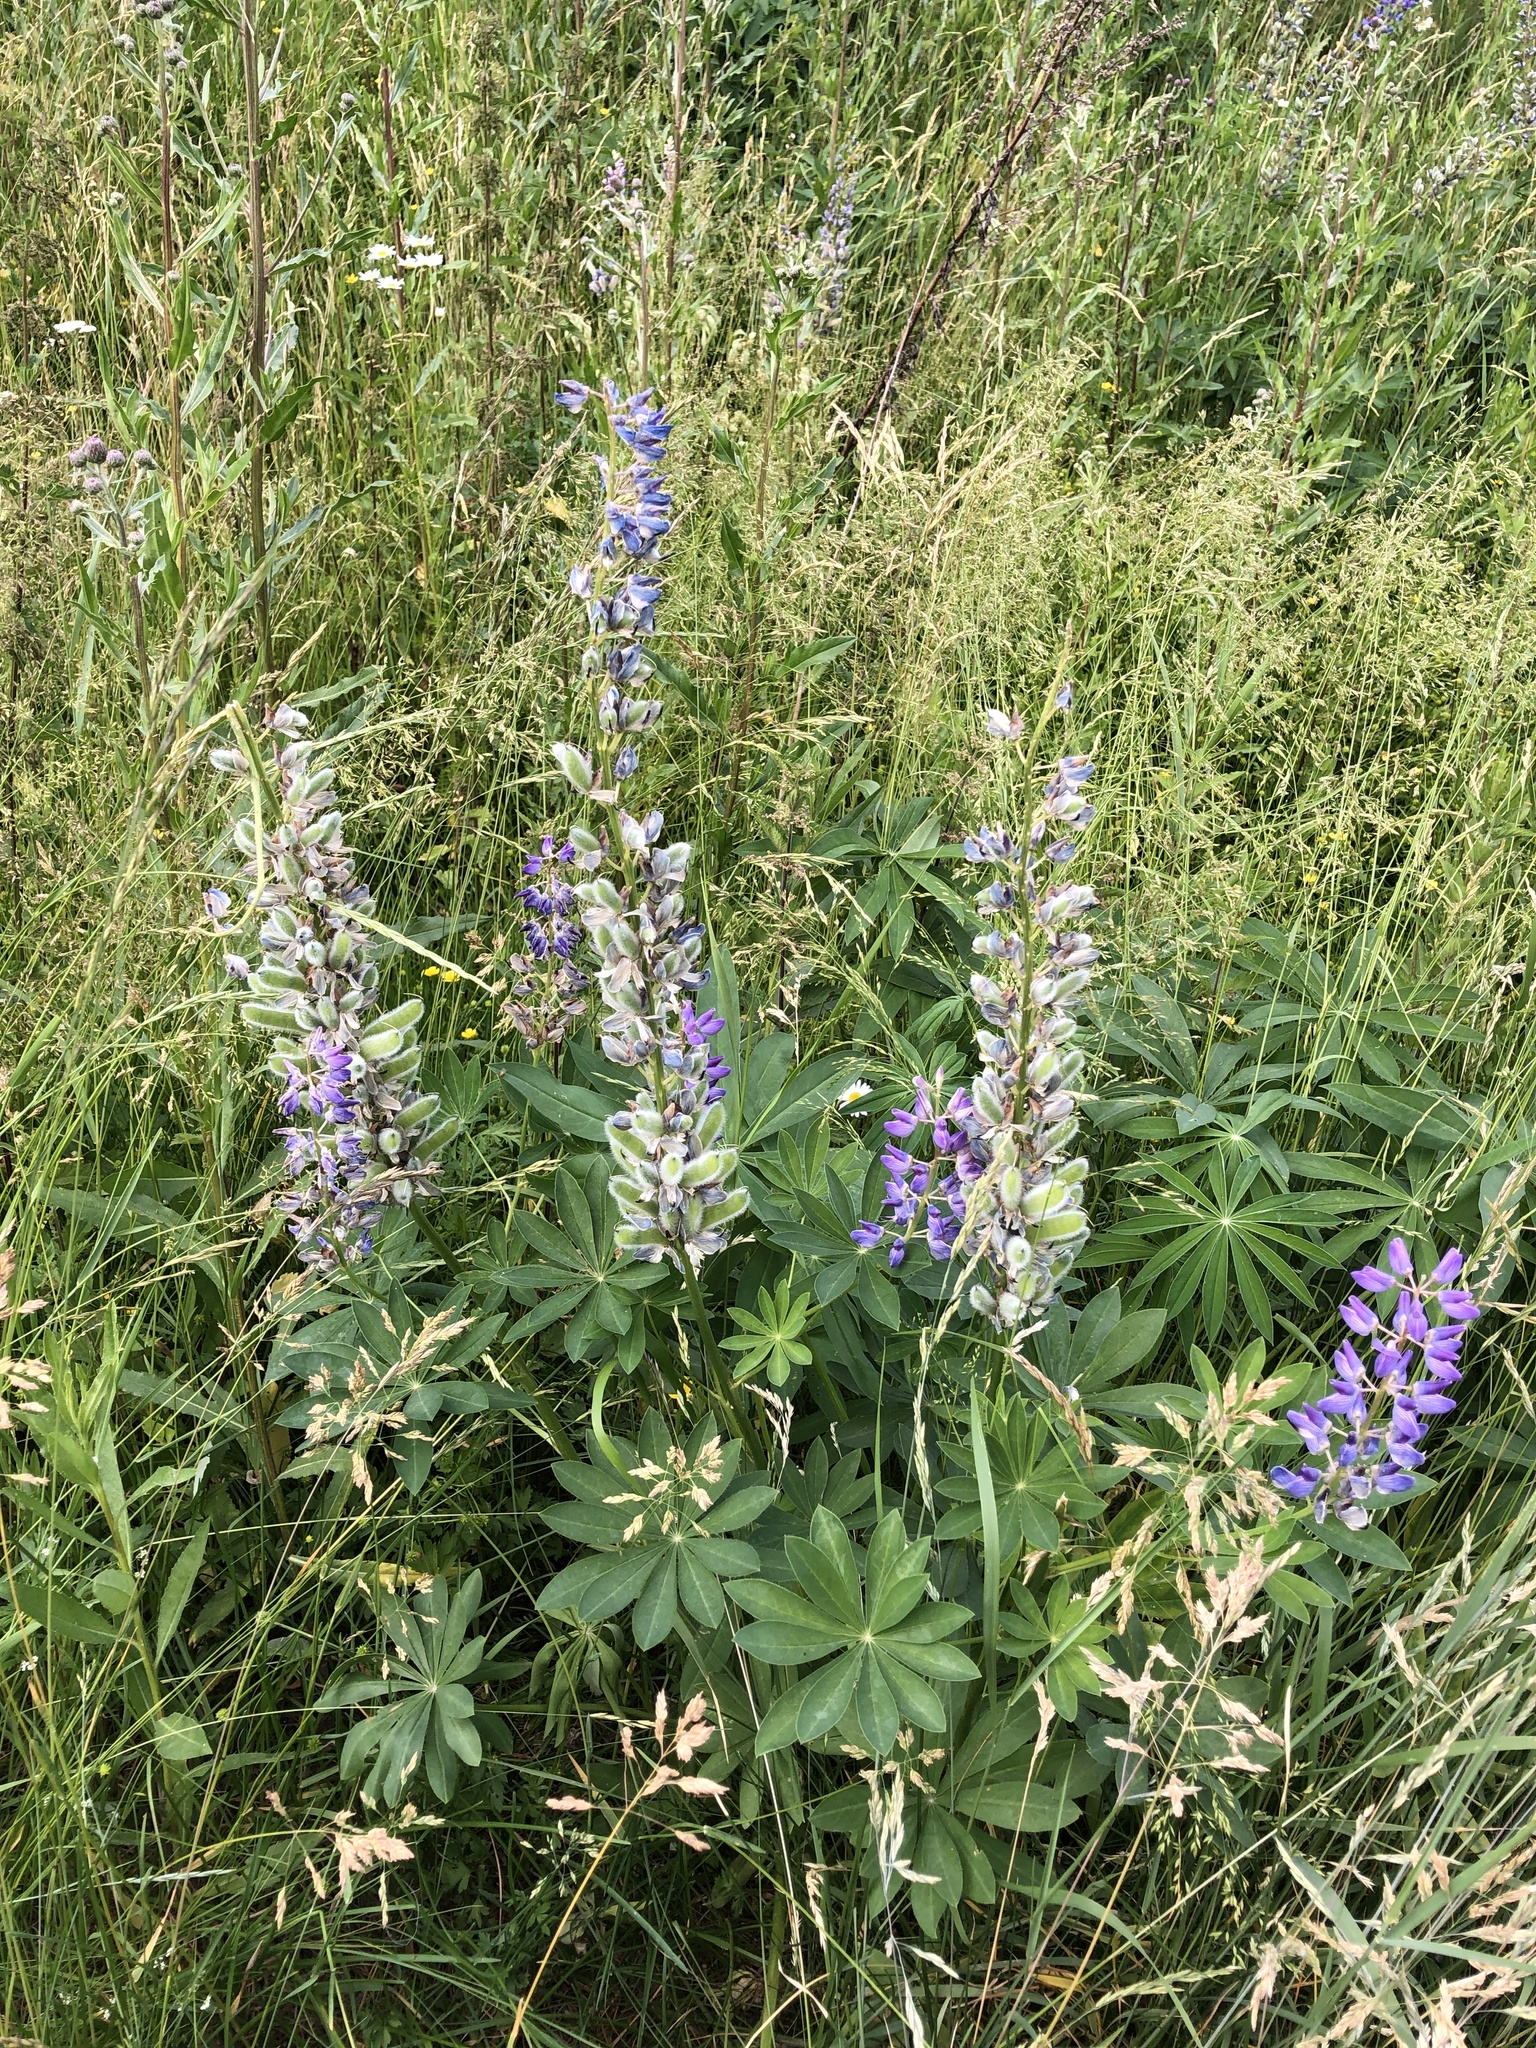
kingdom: Plantae
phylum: Tracheophyta
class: Magnoliopsida
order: Fabales
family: Fabaceae
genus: Lupinus
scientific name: Lupinus polyphyllus
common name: Garden lupin
